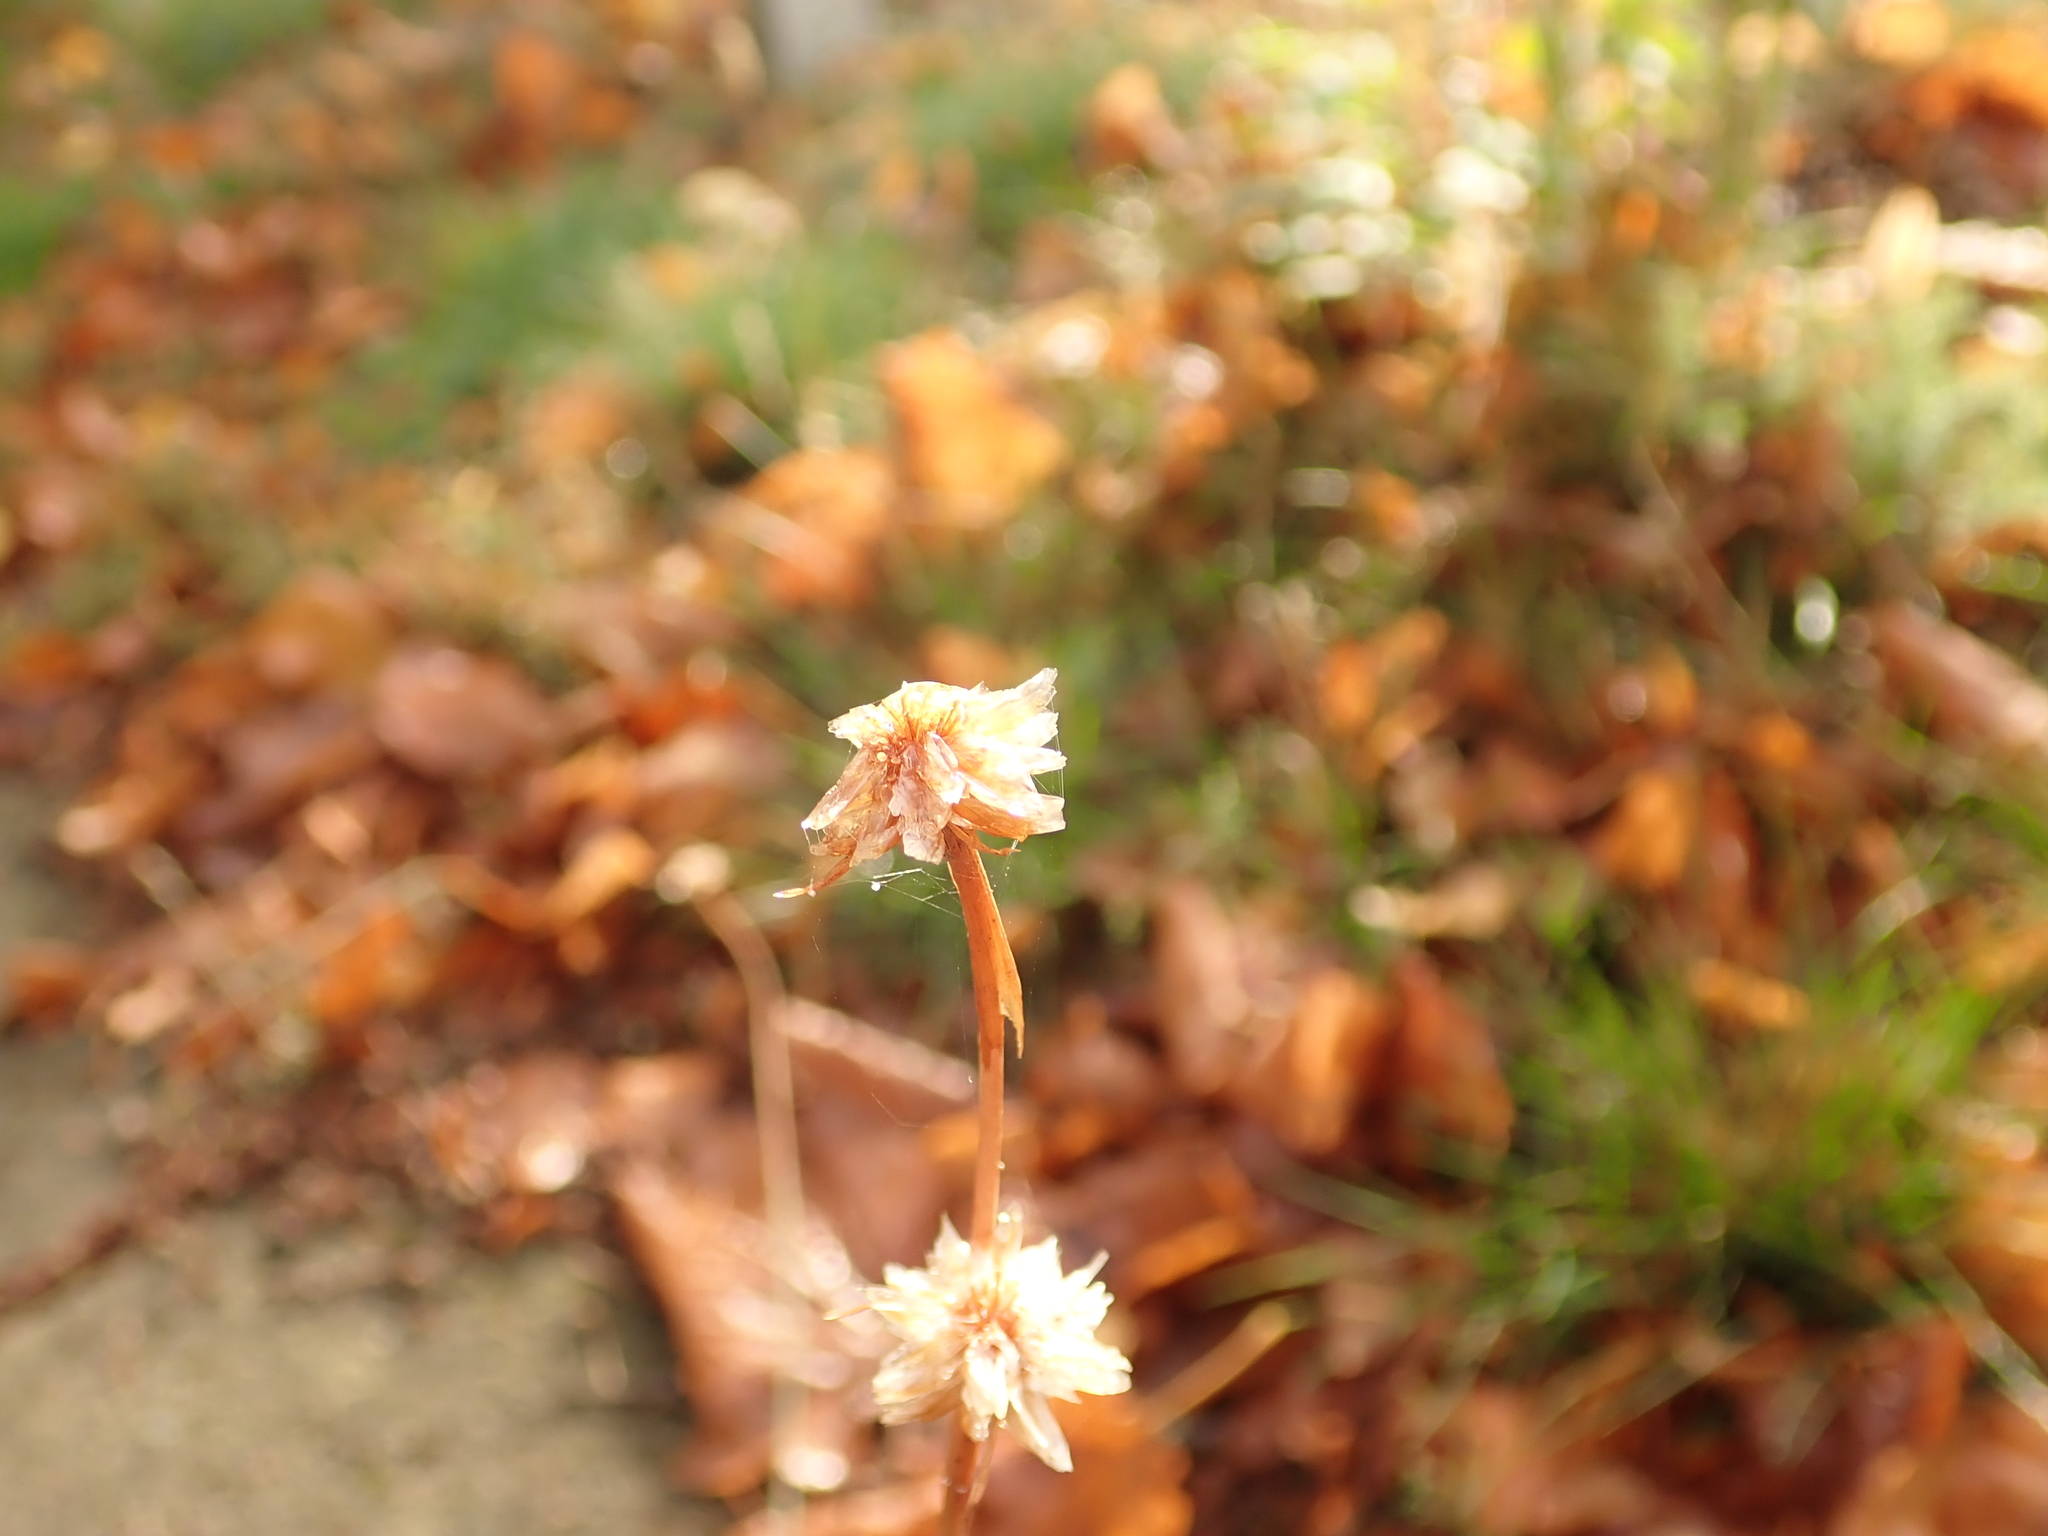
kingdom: Plantae
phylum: Tracheophyta
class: Magnoliopsida
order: Caryophyllales
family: Plumbaginaceae
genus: Armeria
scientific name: Armeria maritima
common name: Thrift
